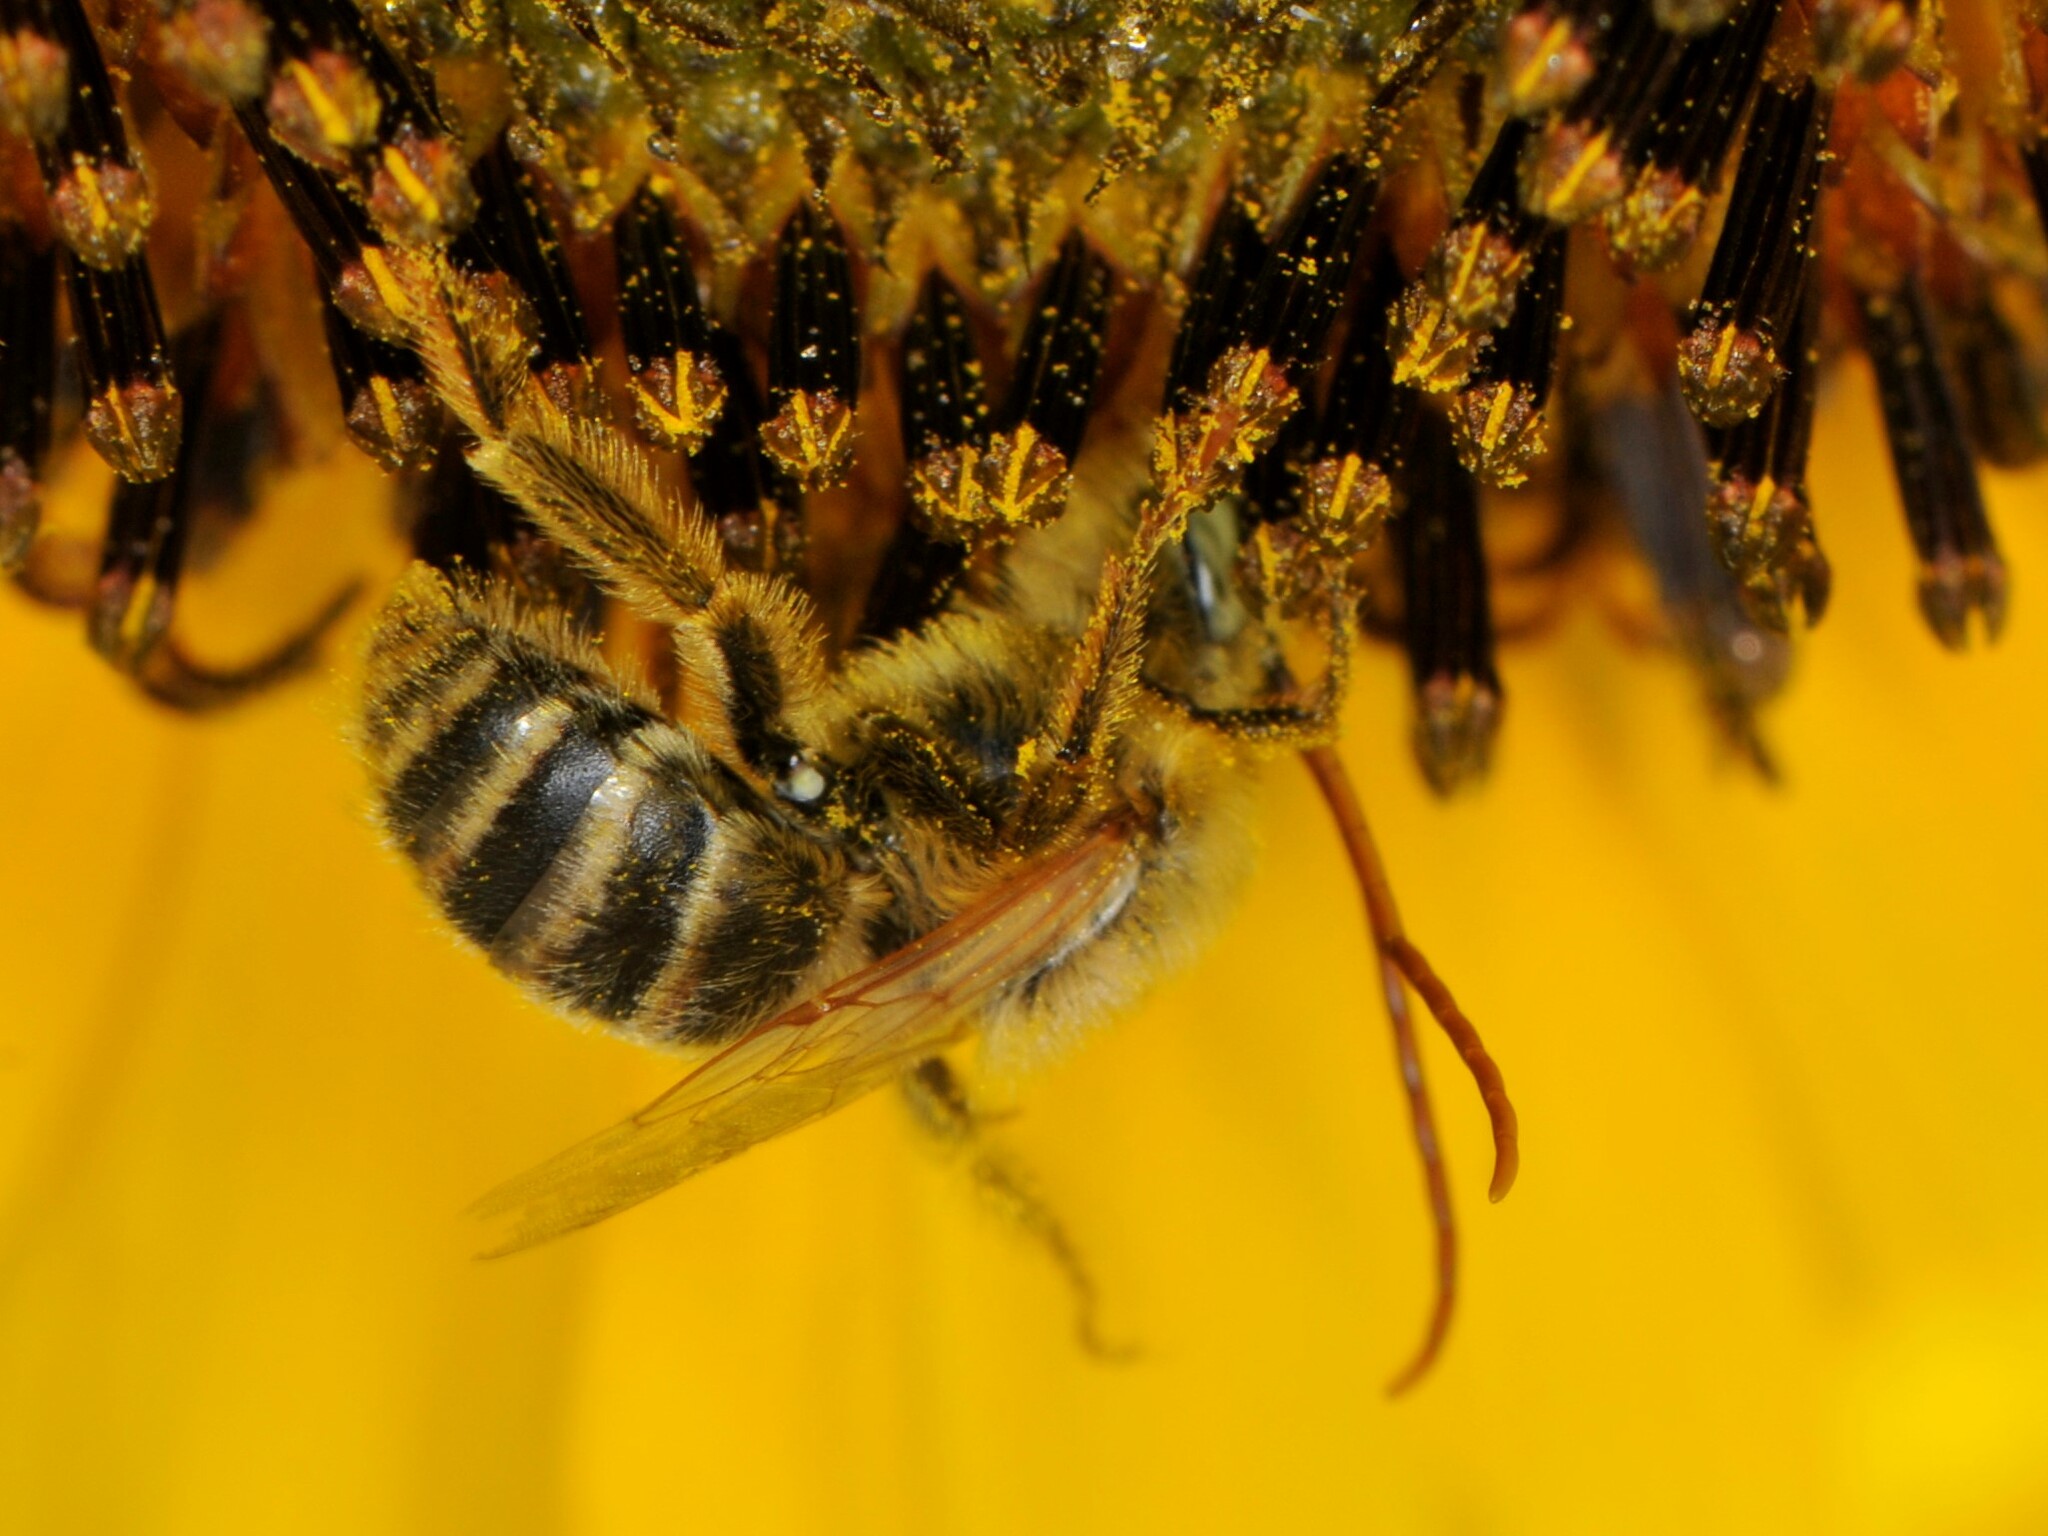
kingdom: Animalia
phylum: Arthropoda
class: Insecta
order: Hymenoptera
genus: Eumelissodes
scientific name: Eumelissodes
